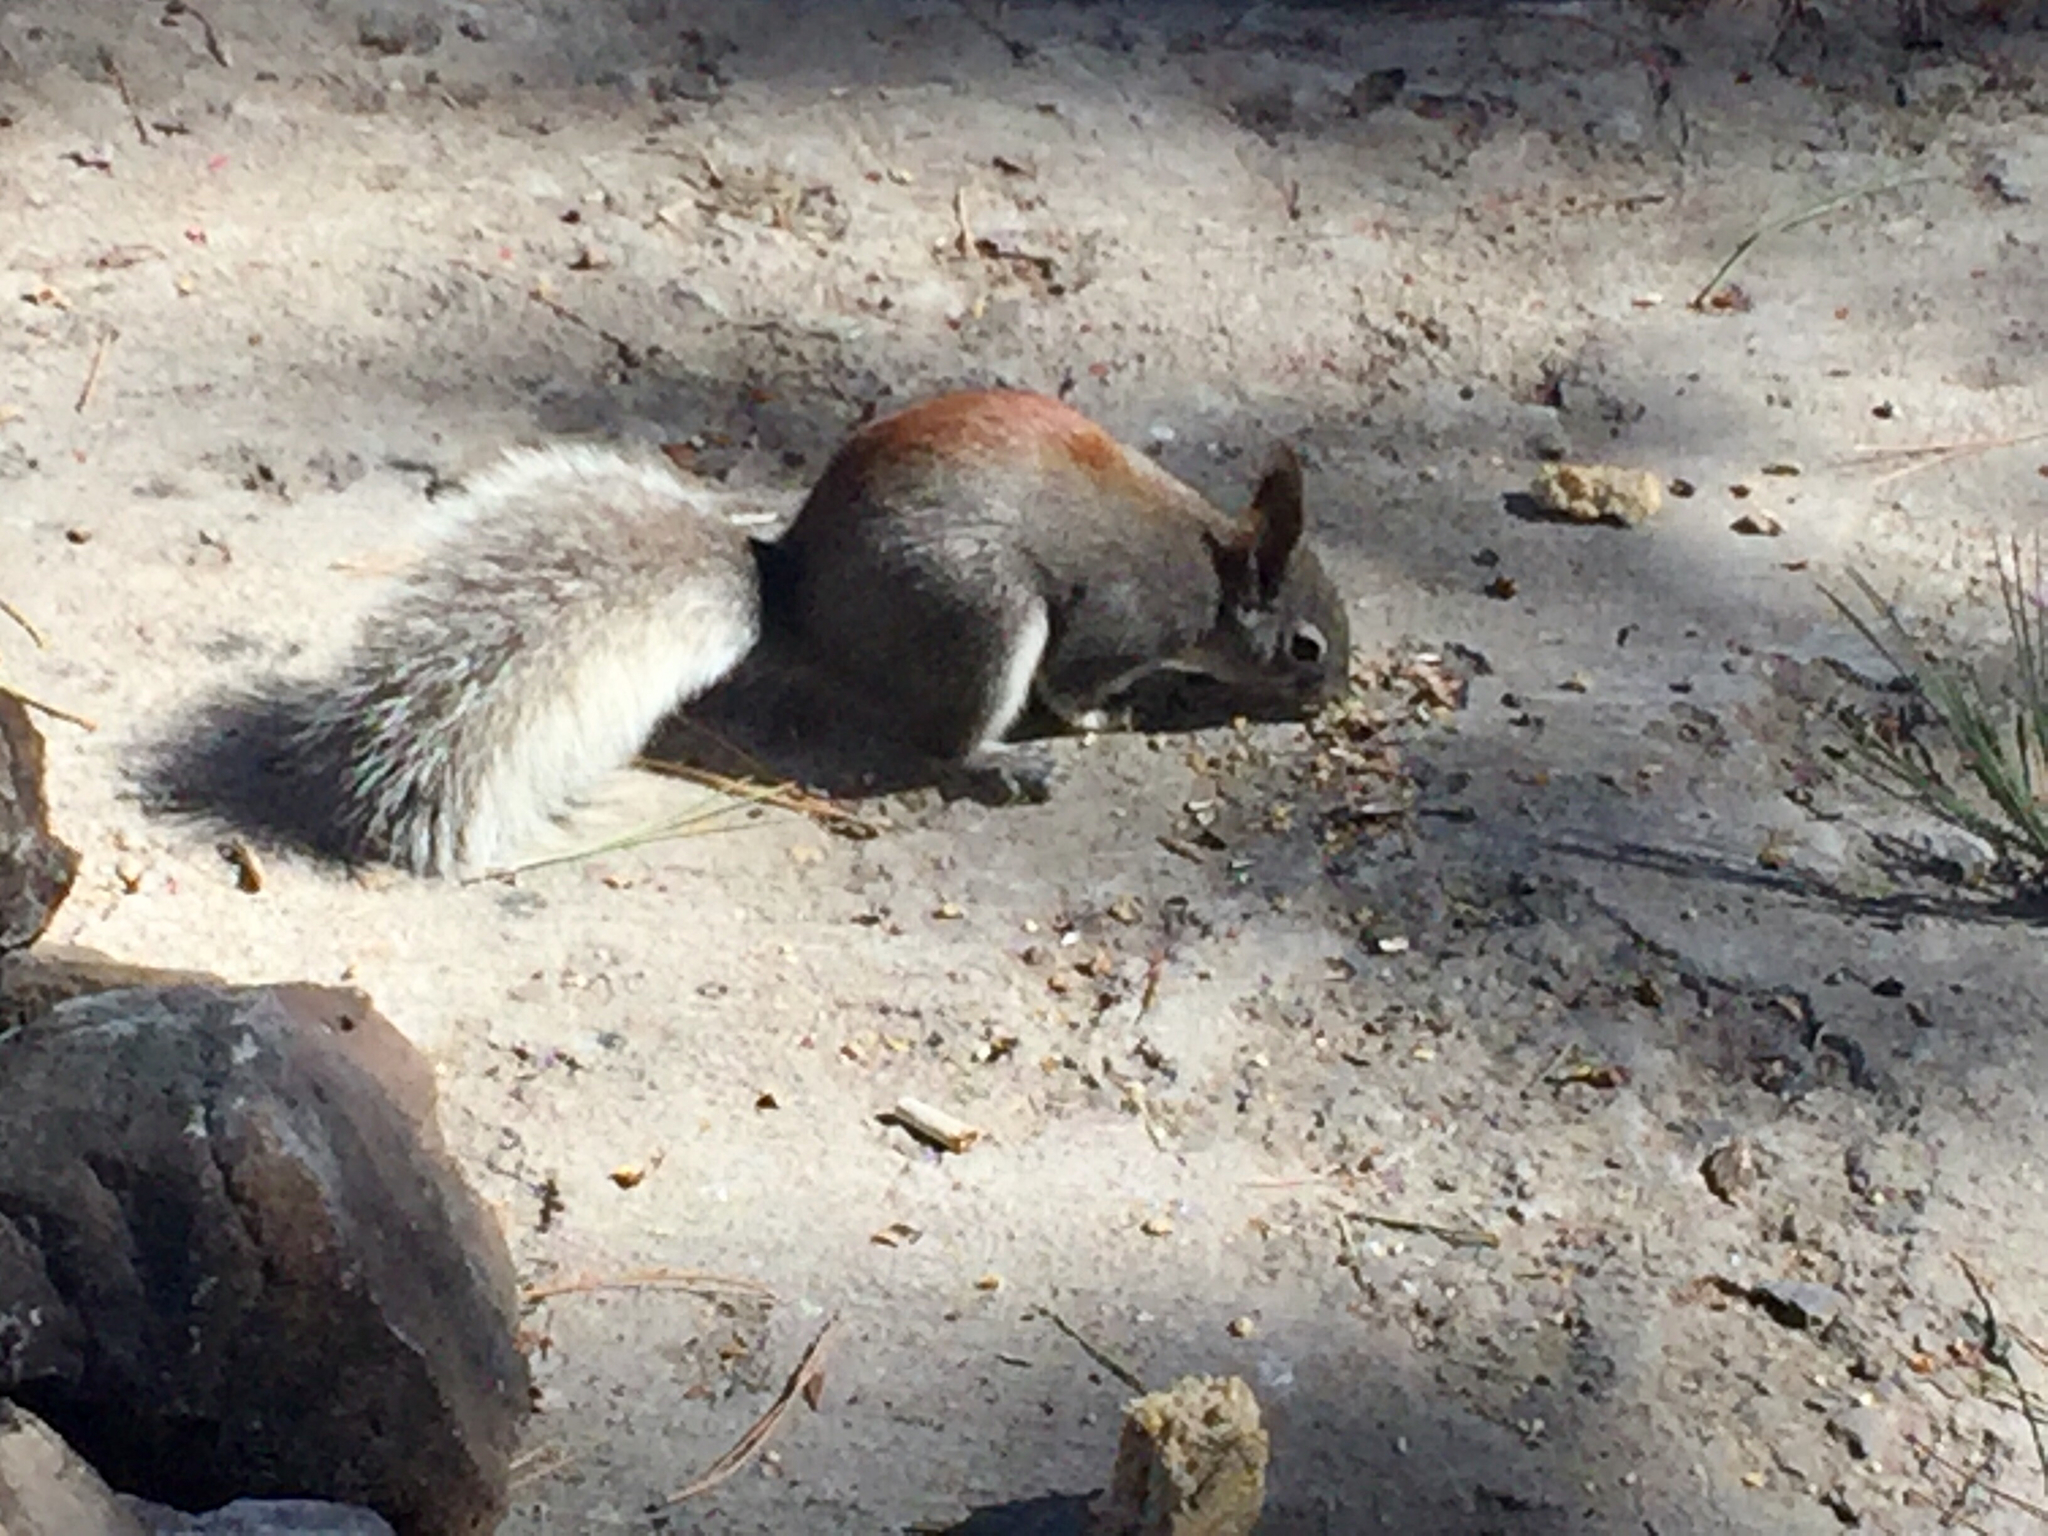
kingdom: Animalia
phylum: Chordata
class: Mammalia
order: Rodentia
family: Sciuridae
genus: Sciurus
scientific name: Sciurus aberti
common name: Abert's squirrel
